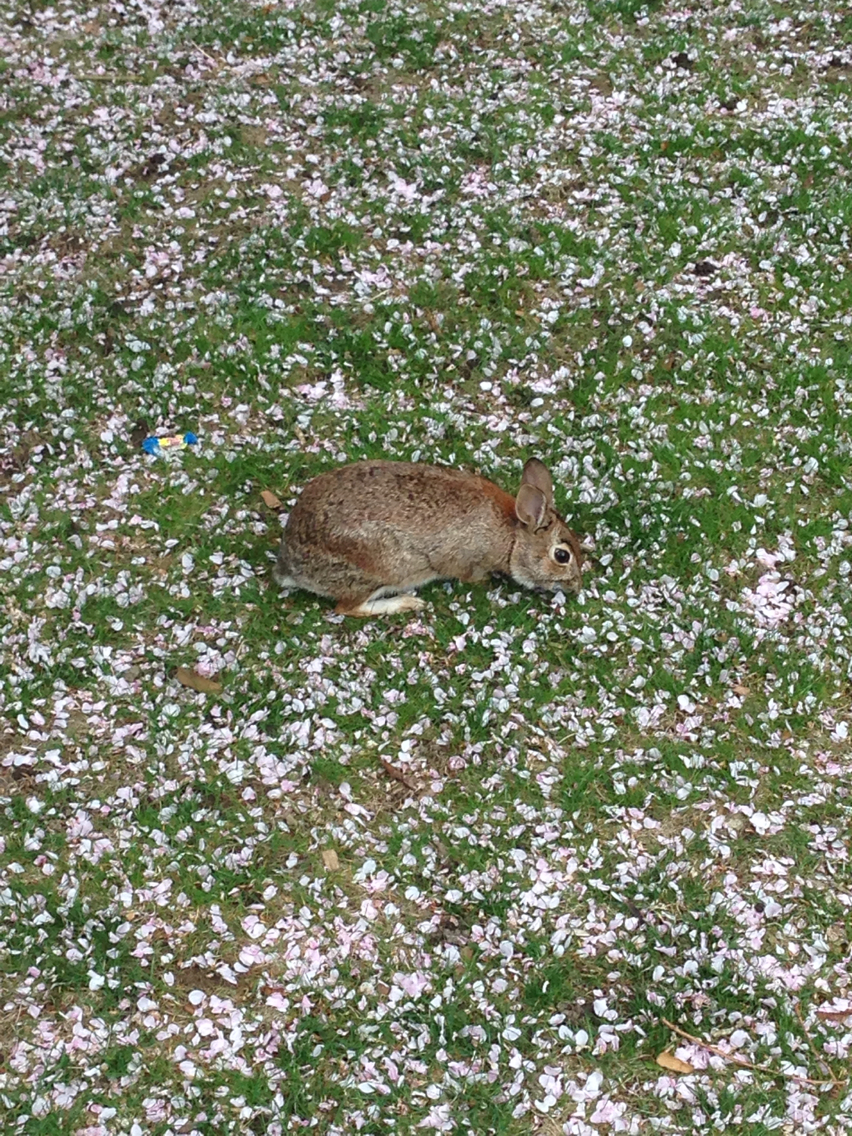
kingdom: Animalia
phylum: Chordata
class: Mammalia
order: Lagomorpha
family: Leporidae
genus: Sylvilagus
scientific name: Sylvilagus floridanus
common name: Eastern cottontail
